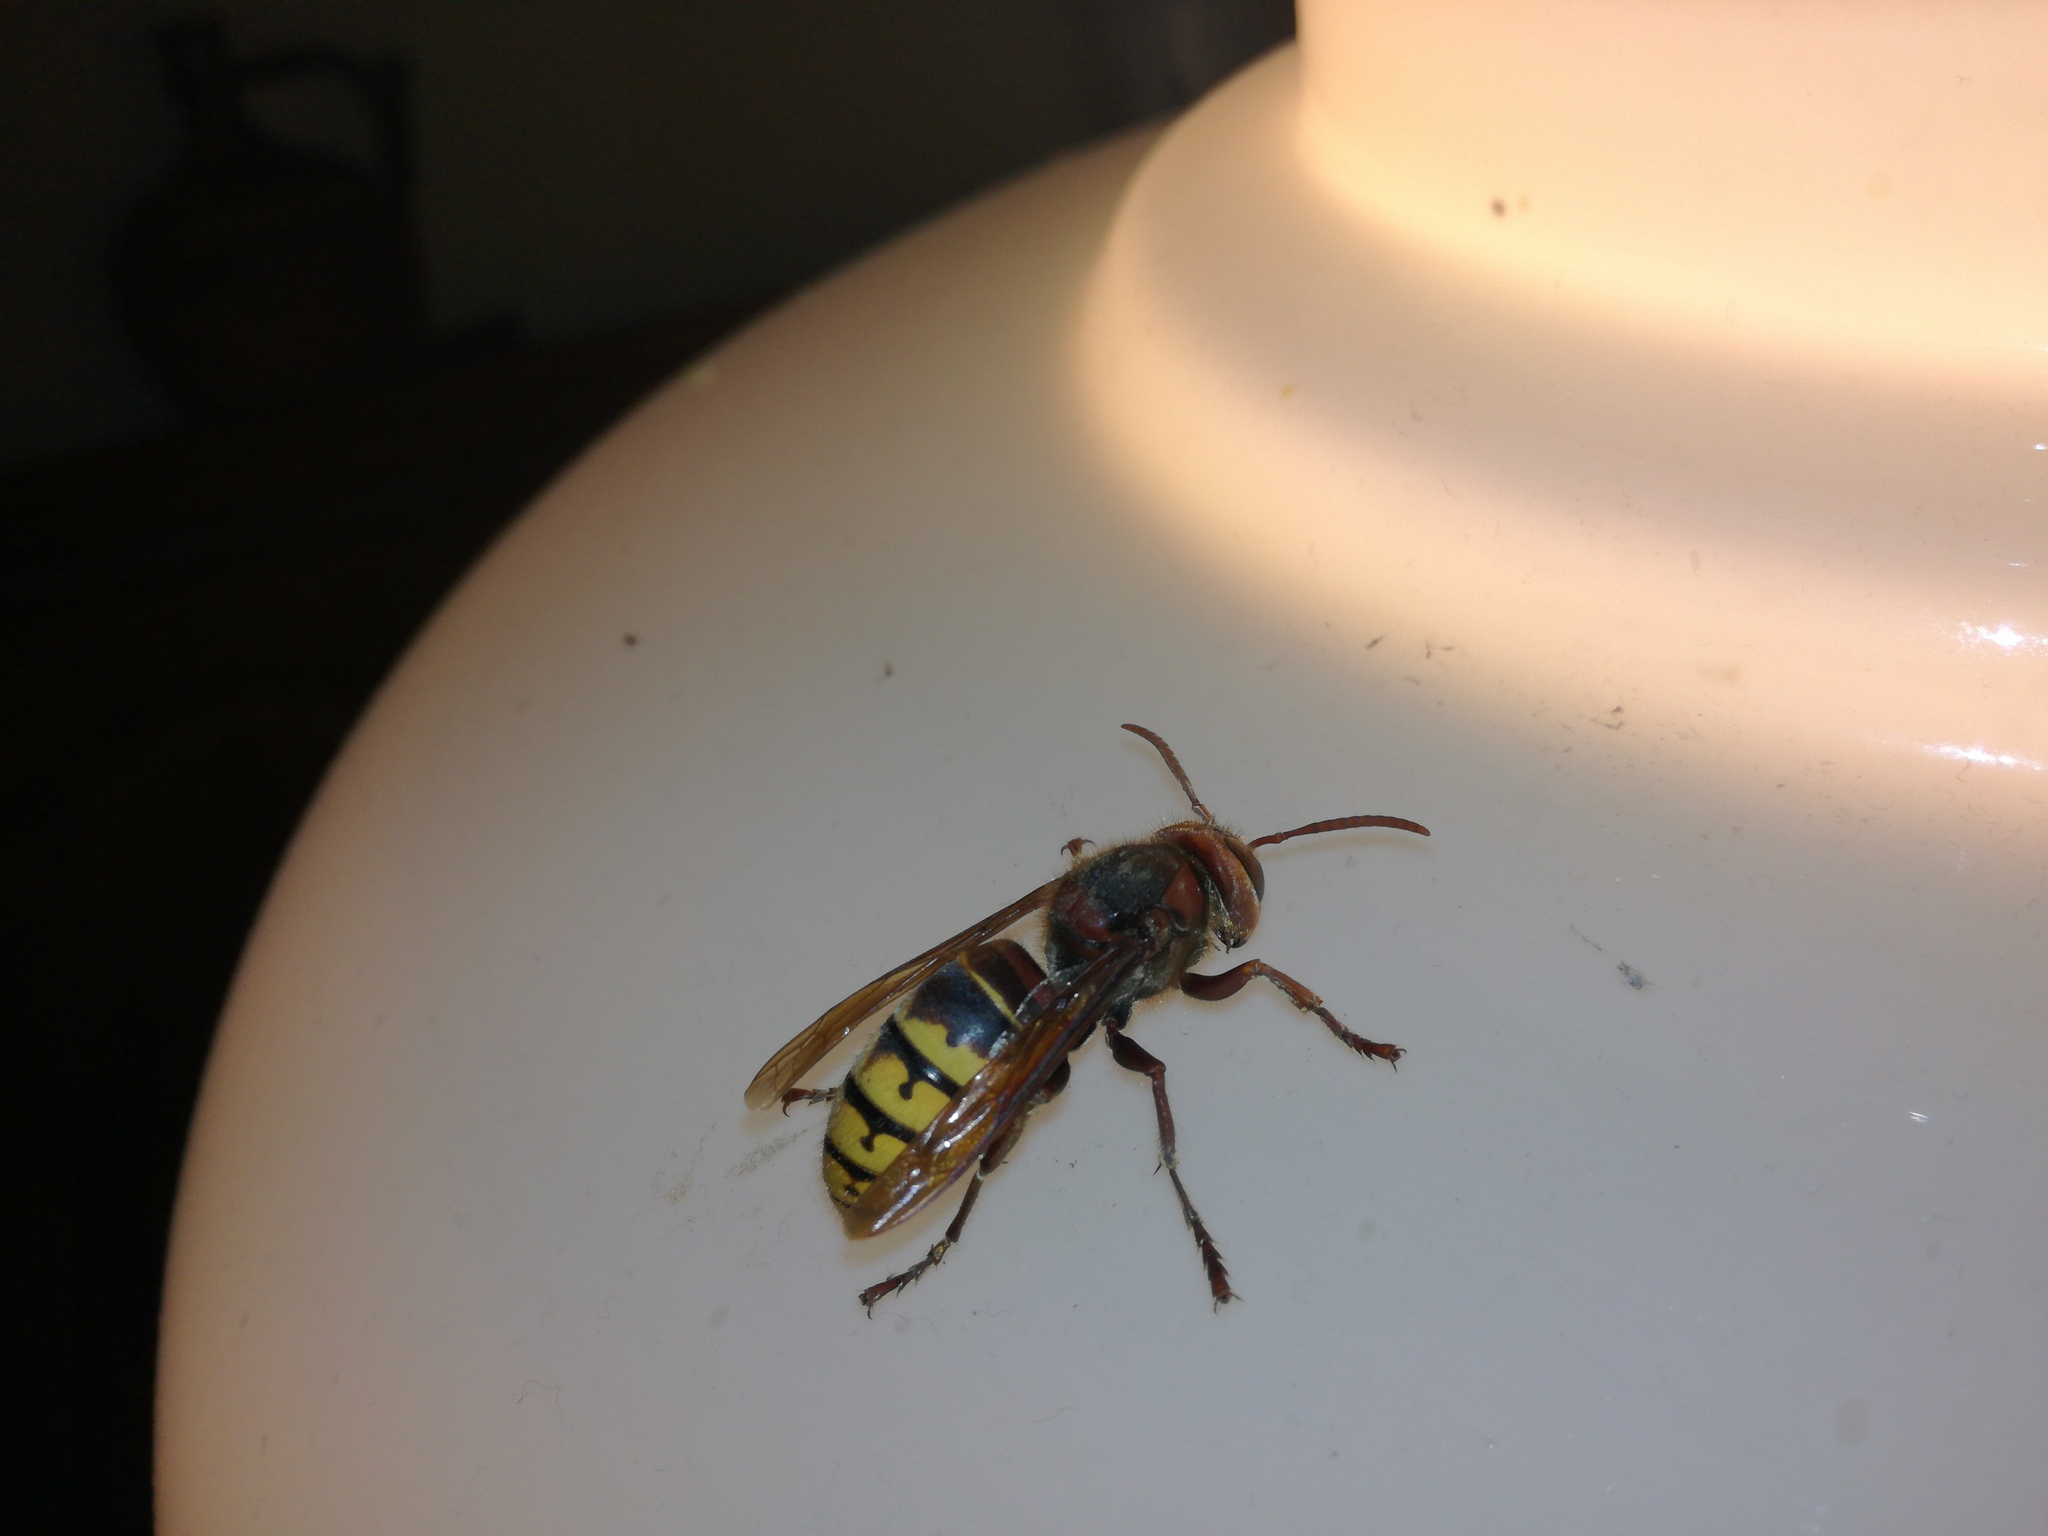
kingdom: Animalia
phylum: Arthropoda
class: Insecta
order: Hymenoptera
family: Vespidae
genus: Vespa
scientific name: Vespa crabro
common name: Hornet
